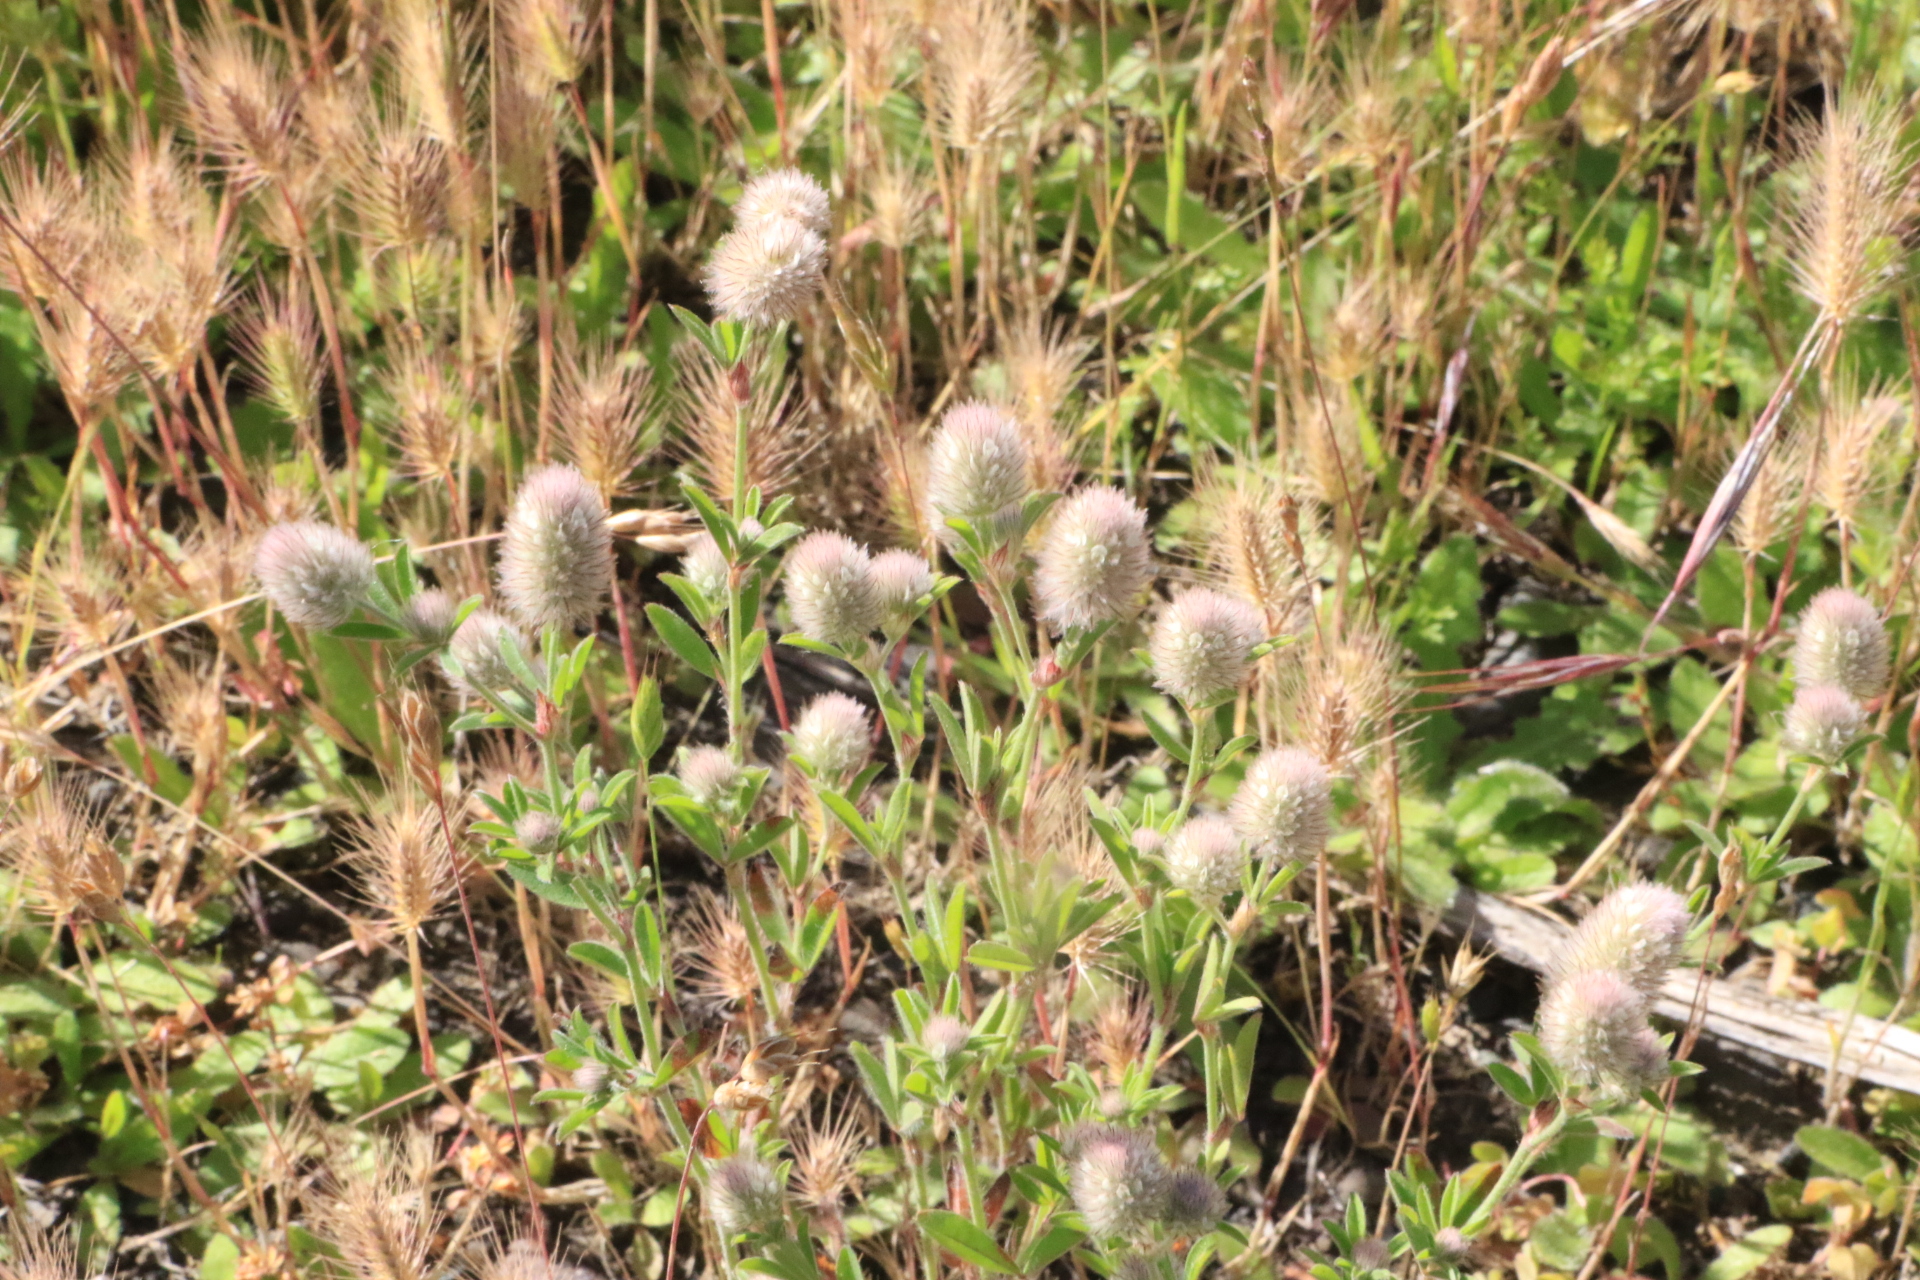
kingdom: Plantae
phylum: Tracheophyta
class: Magnoliopsida
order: Fabales
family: Fabaceae
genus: Trifolium
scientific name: Trifolium arvense
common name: Hare's-foot clover
